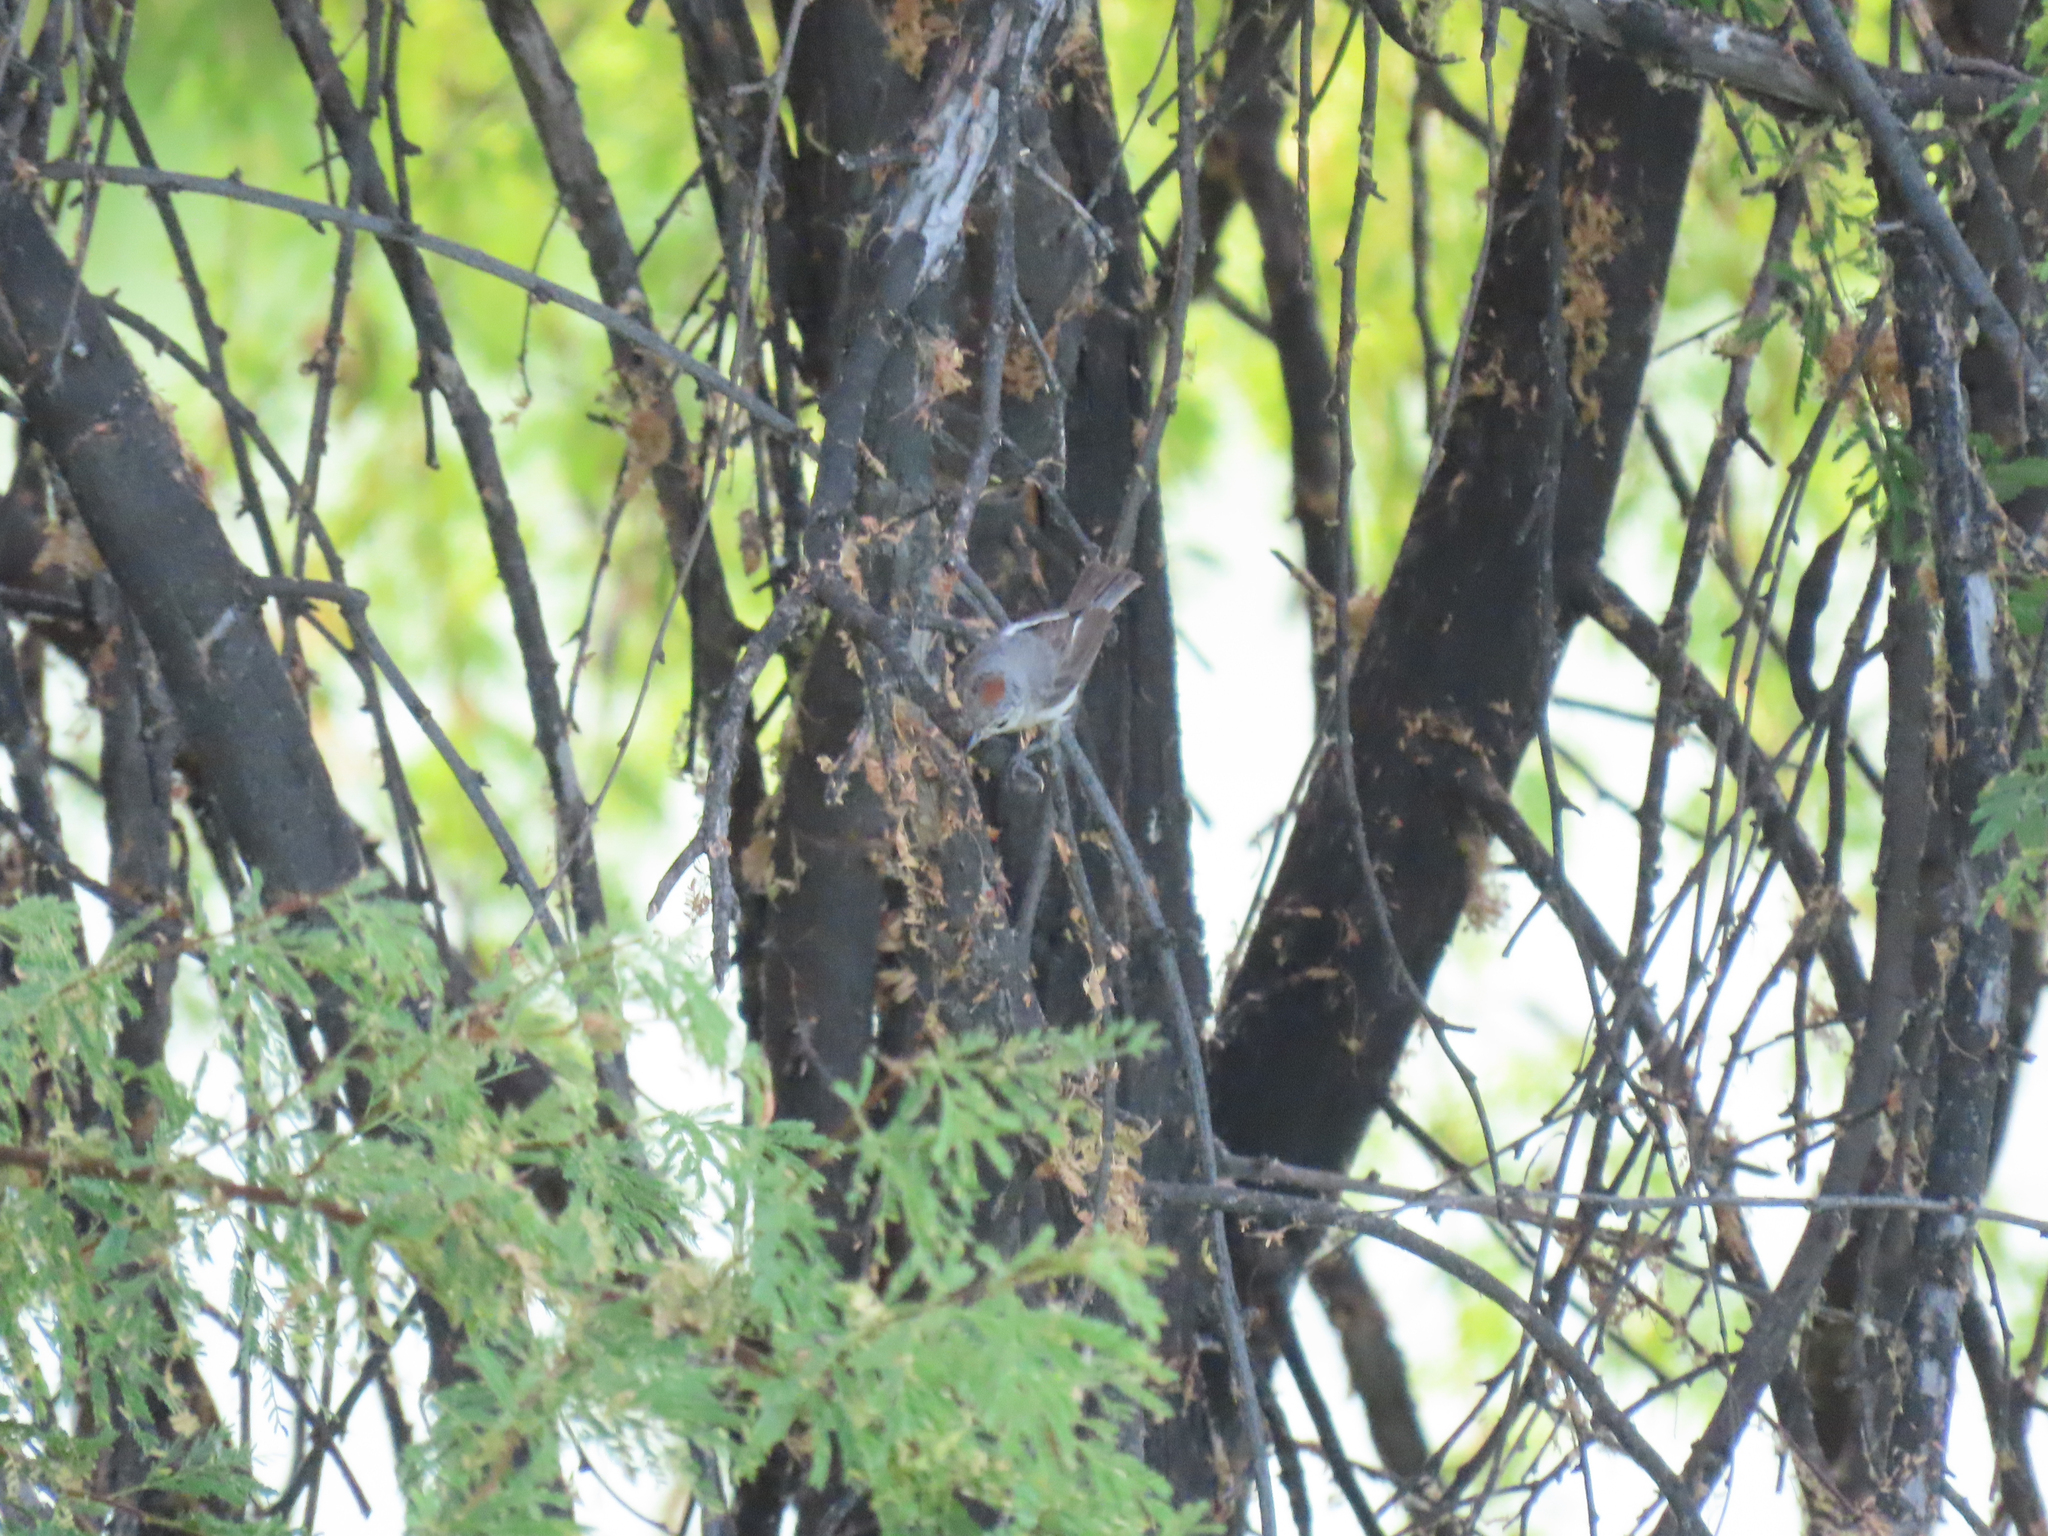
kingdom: Animalia
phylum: Chordata
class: Aves
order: Passeriformes
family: Parulidae
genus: Leiothlypis
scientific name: Leiothlypis luciae
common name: Lucy's warbler
